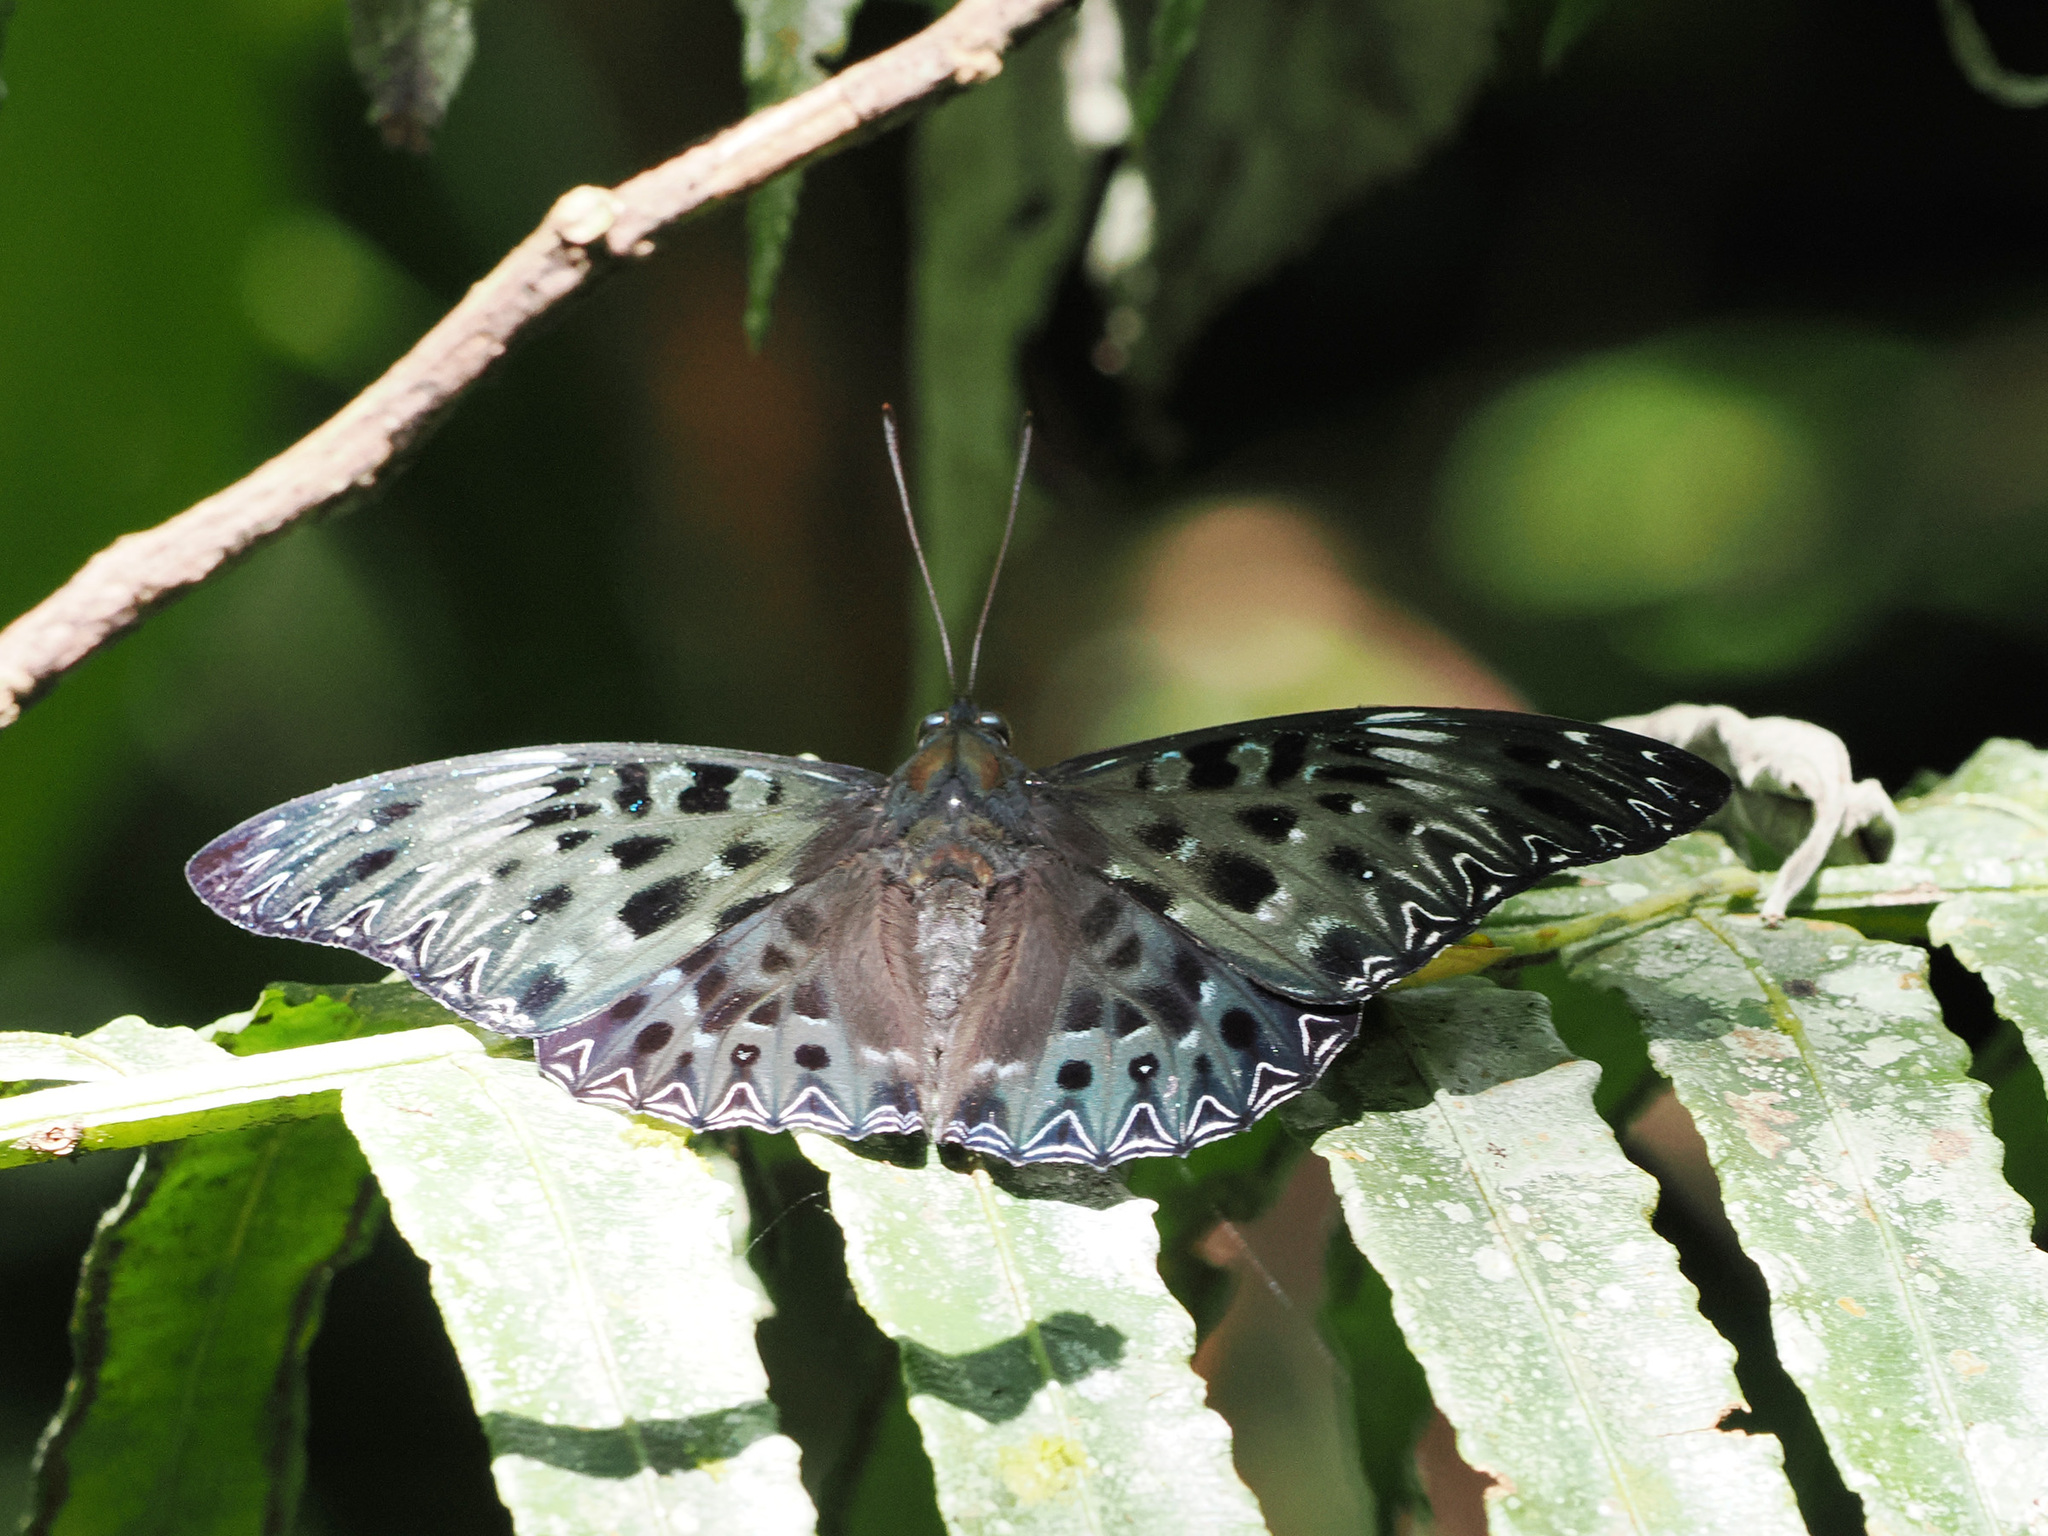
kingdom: Animalia
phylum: Arthropoda
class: Insecta
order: Lepidoptera
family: Nymphalidae
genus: Dichorragia
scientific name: Dichorragia nesimachus
